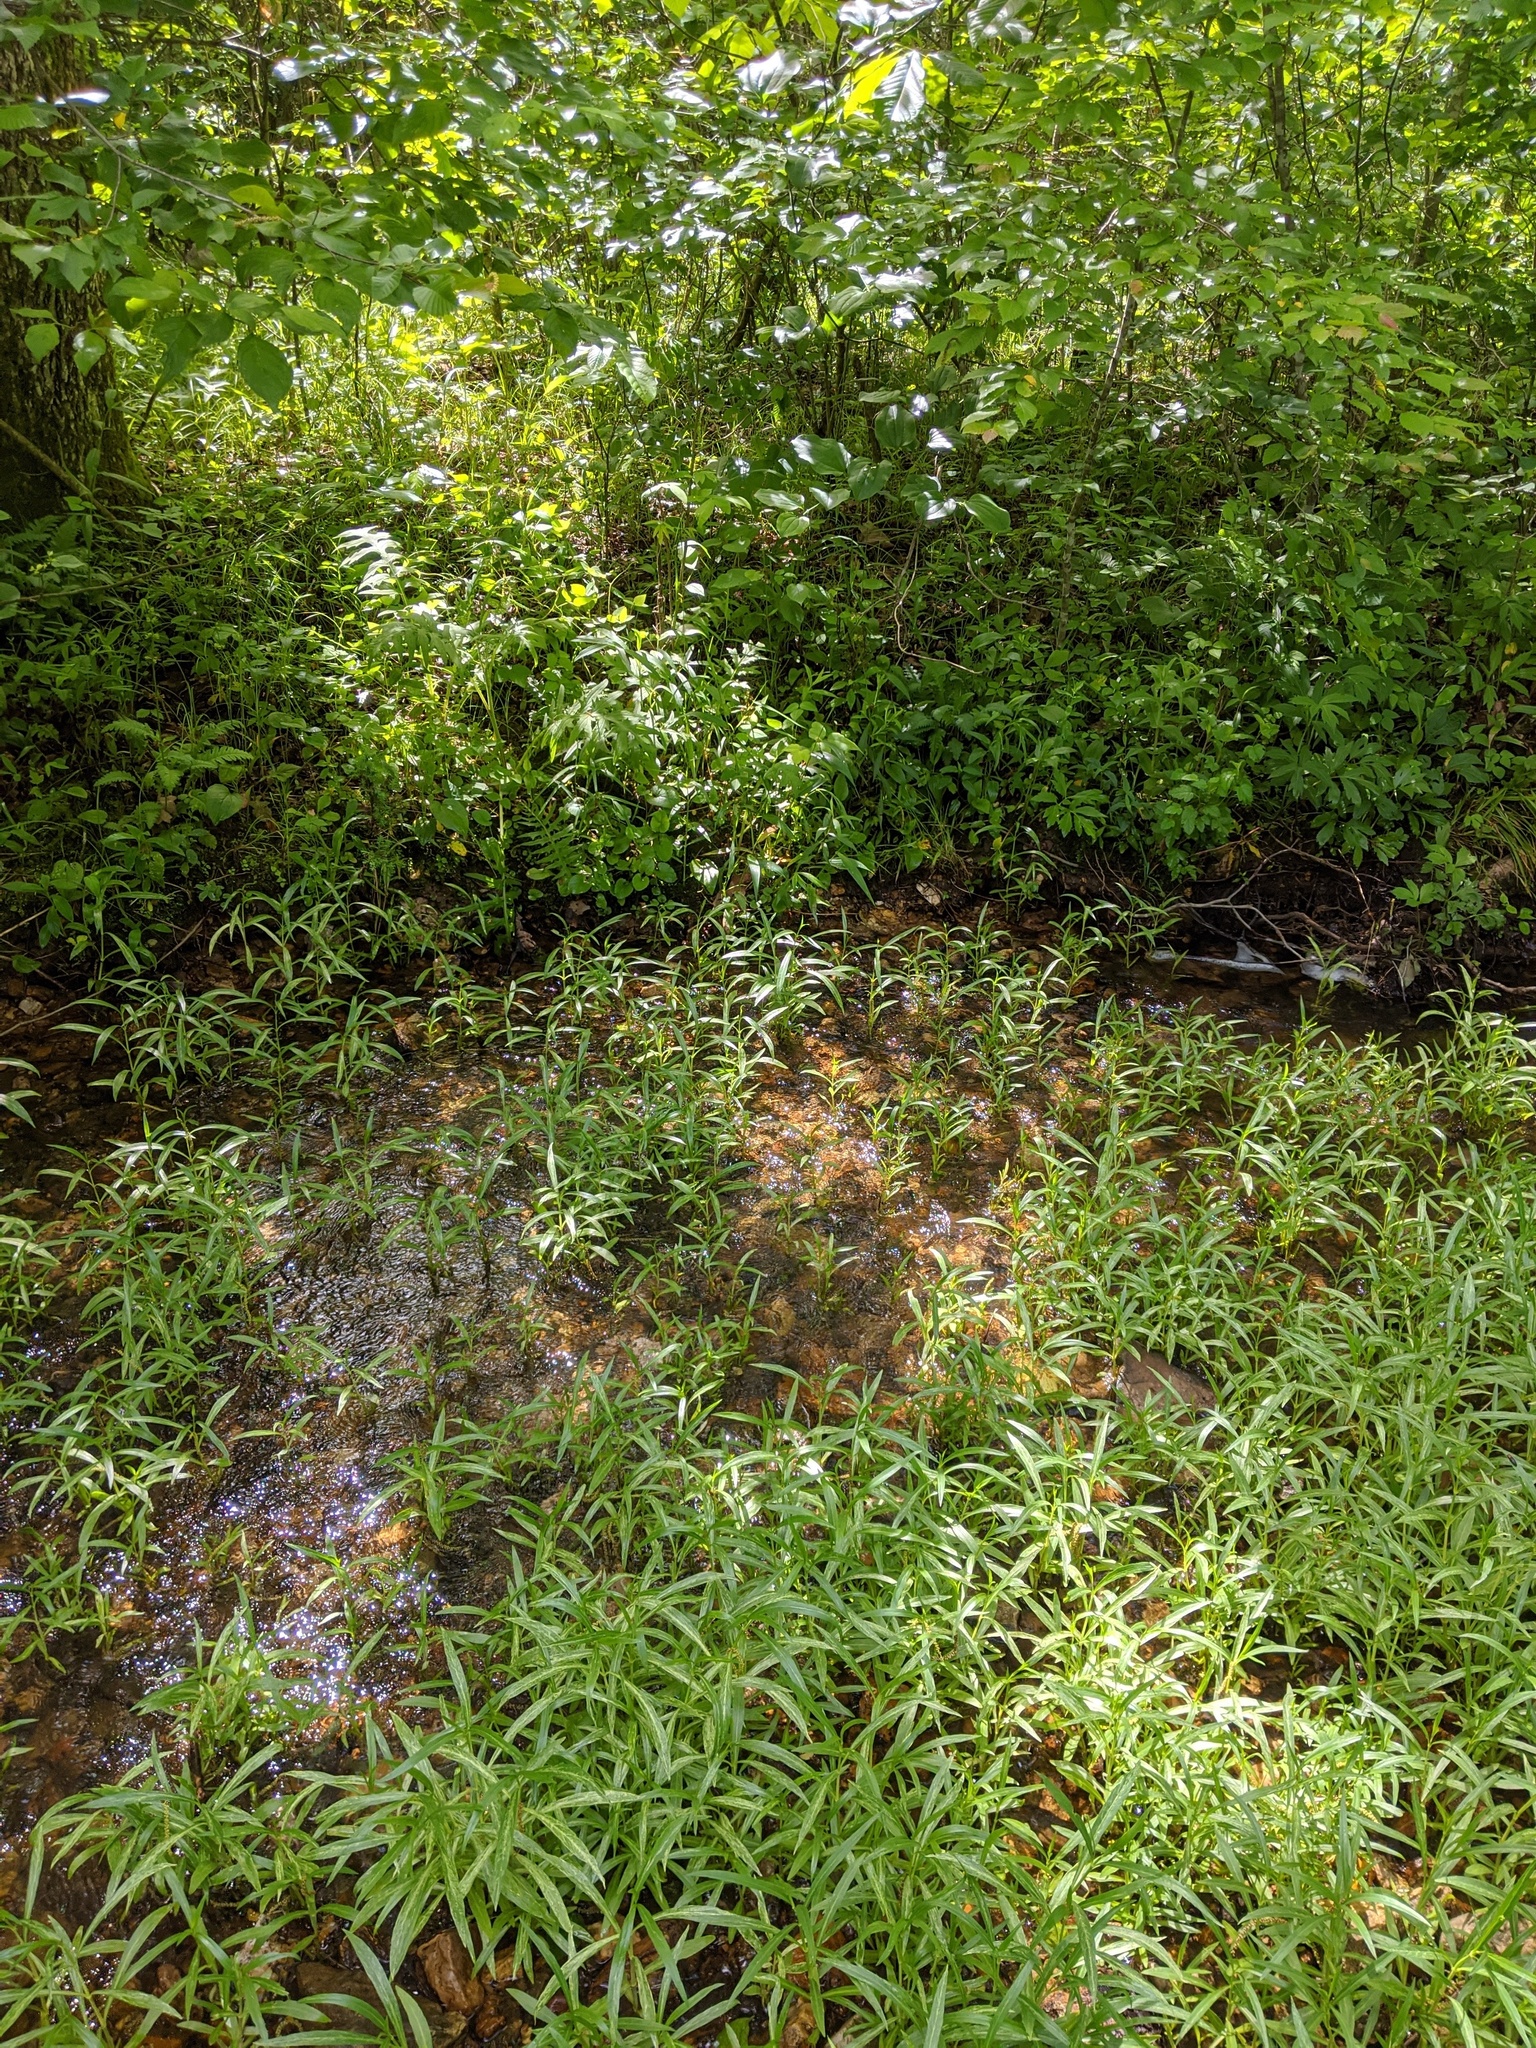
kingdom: Animalia
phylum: Arthropoda
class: Insecta
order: Lepidoptera
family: Hesperiidae
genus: Euphyes
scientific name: Euphyes vestris
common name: Dun skipper
